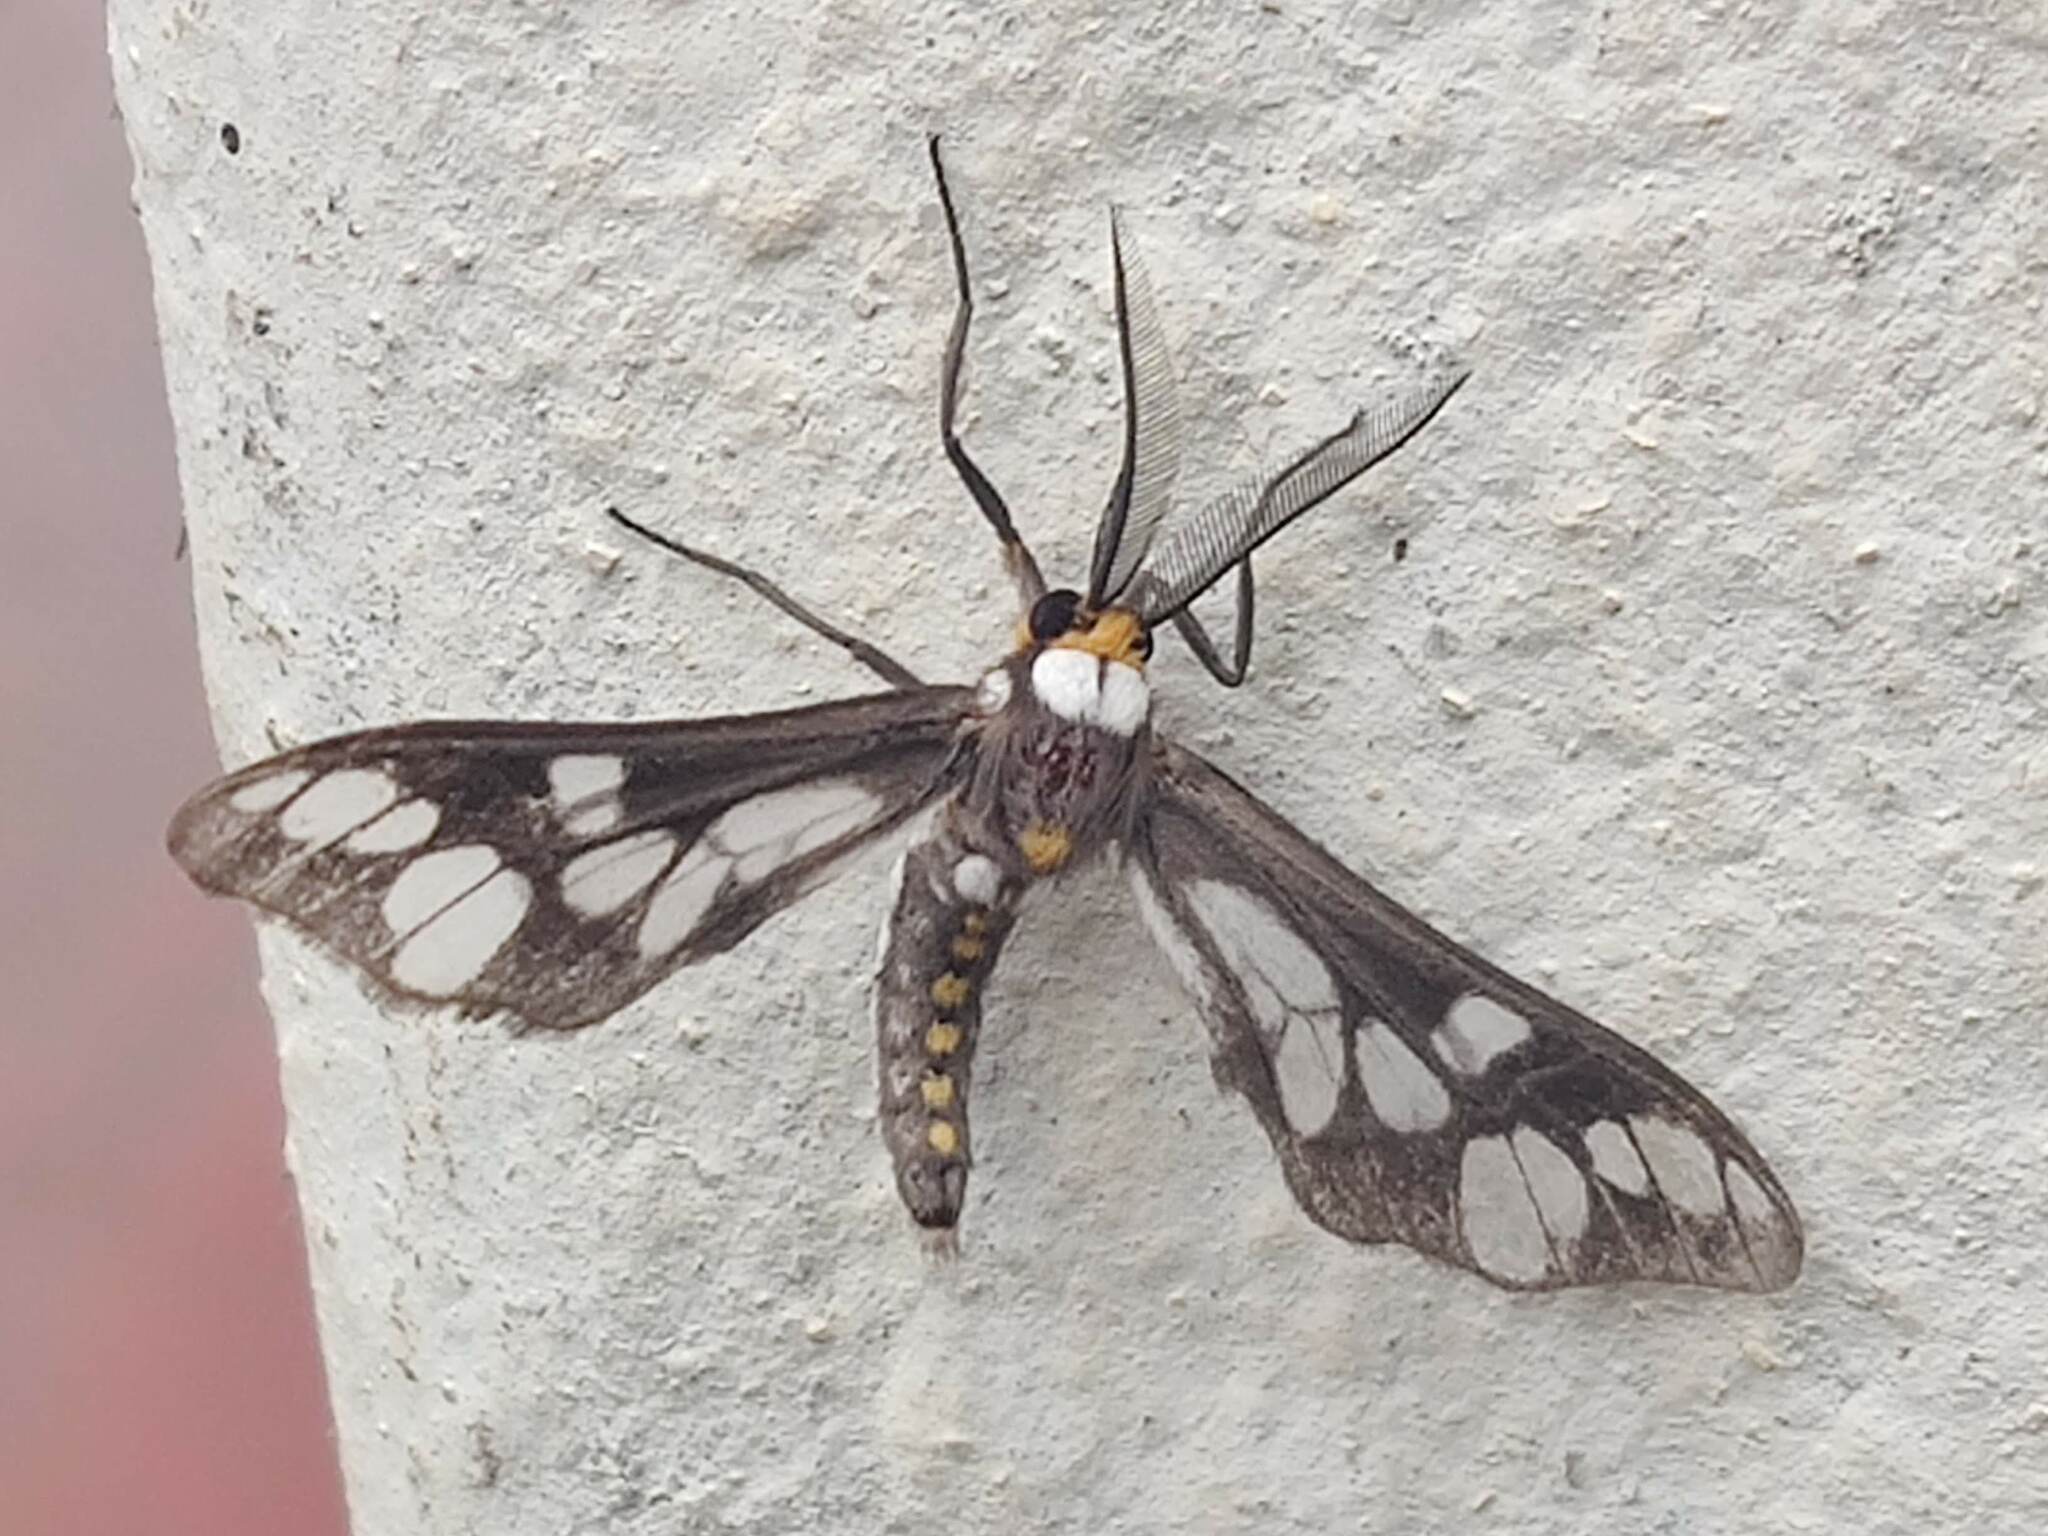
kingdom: Animalia
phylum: Arthropoda
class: Insecta
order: Lepidoptera
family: Erebidae
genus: Thyretes
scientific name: Thyretes caffra
